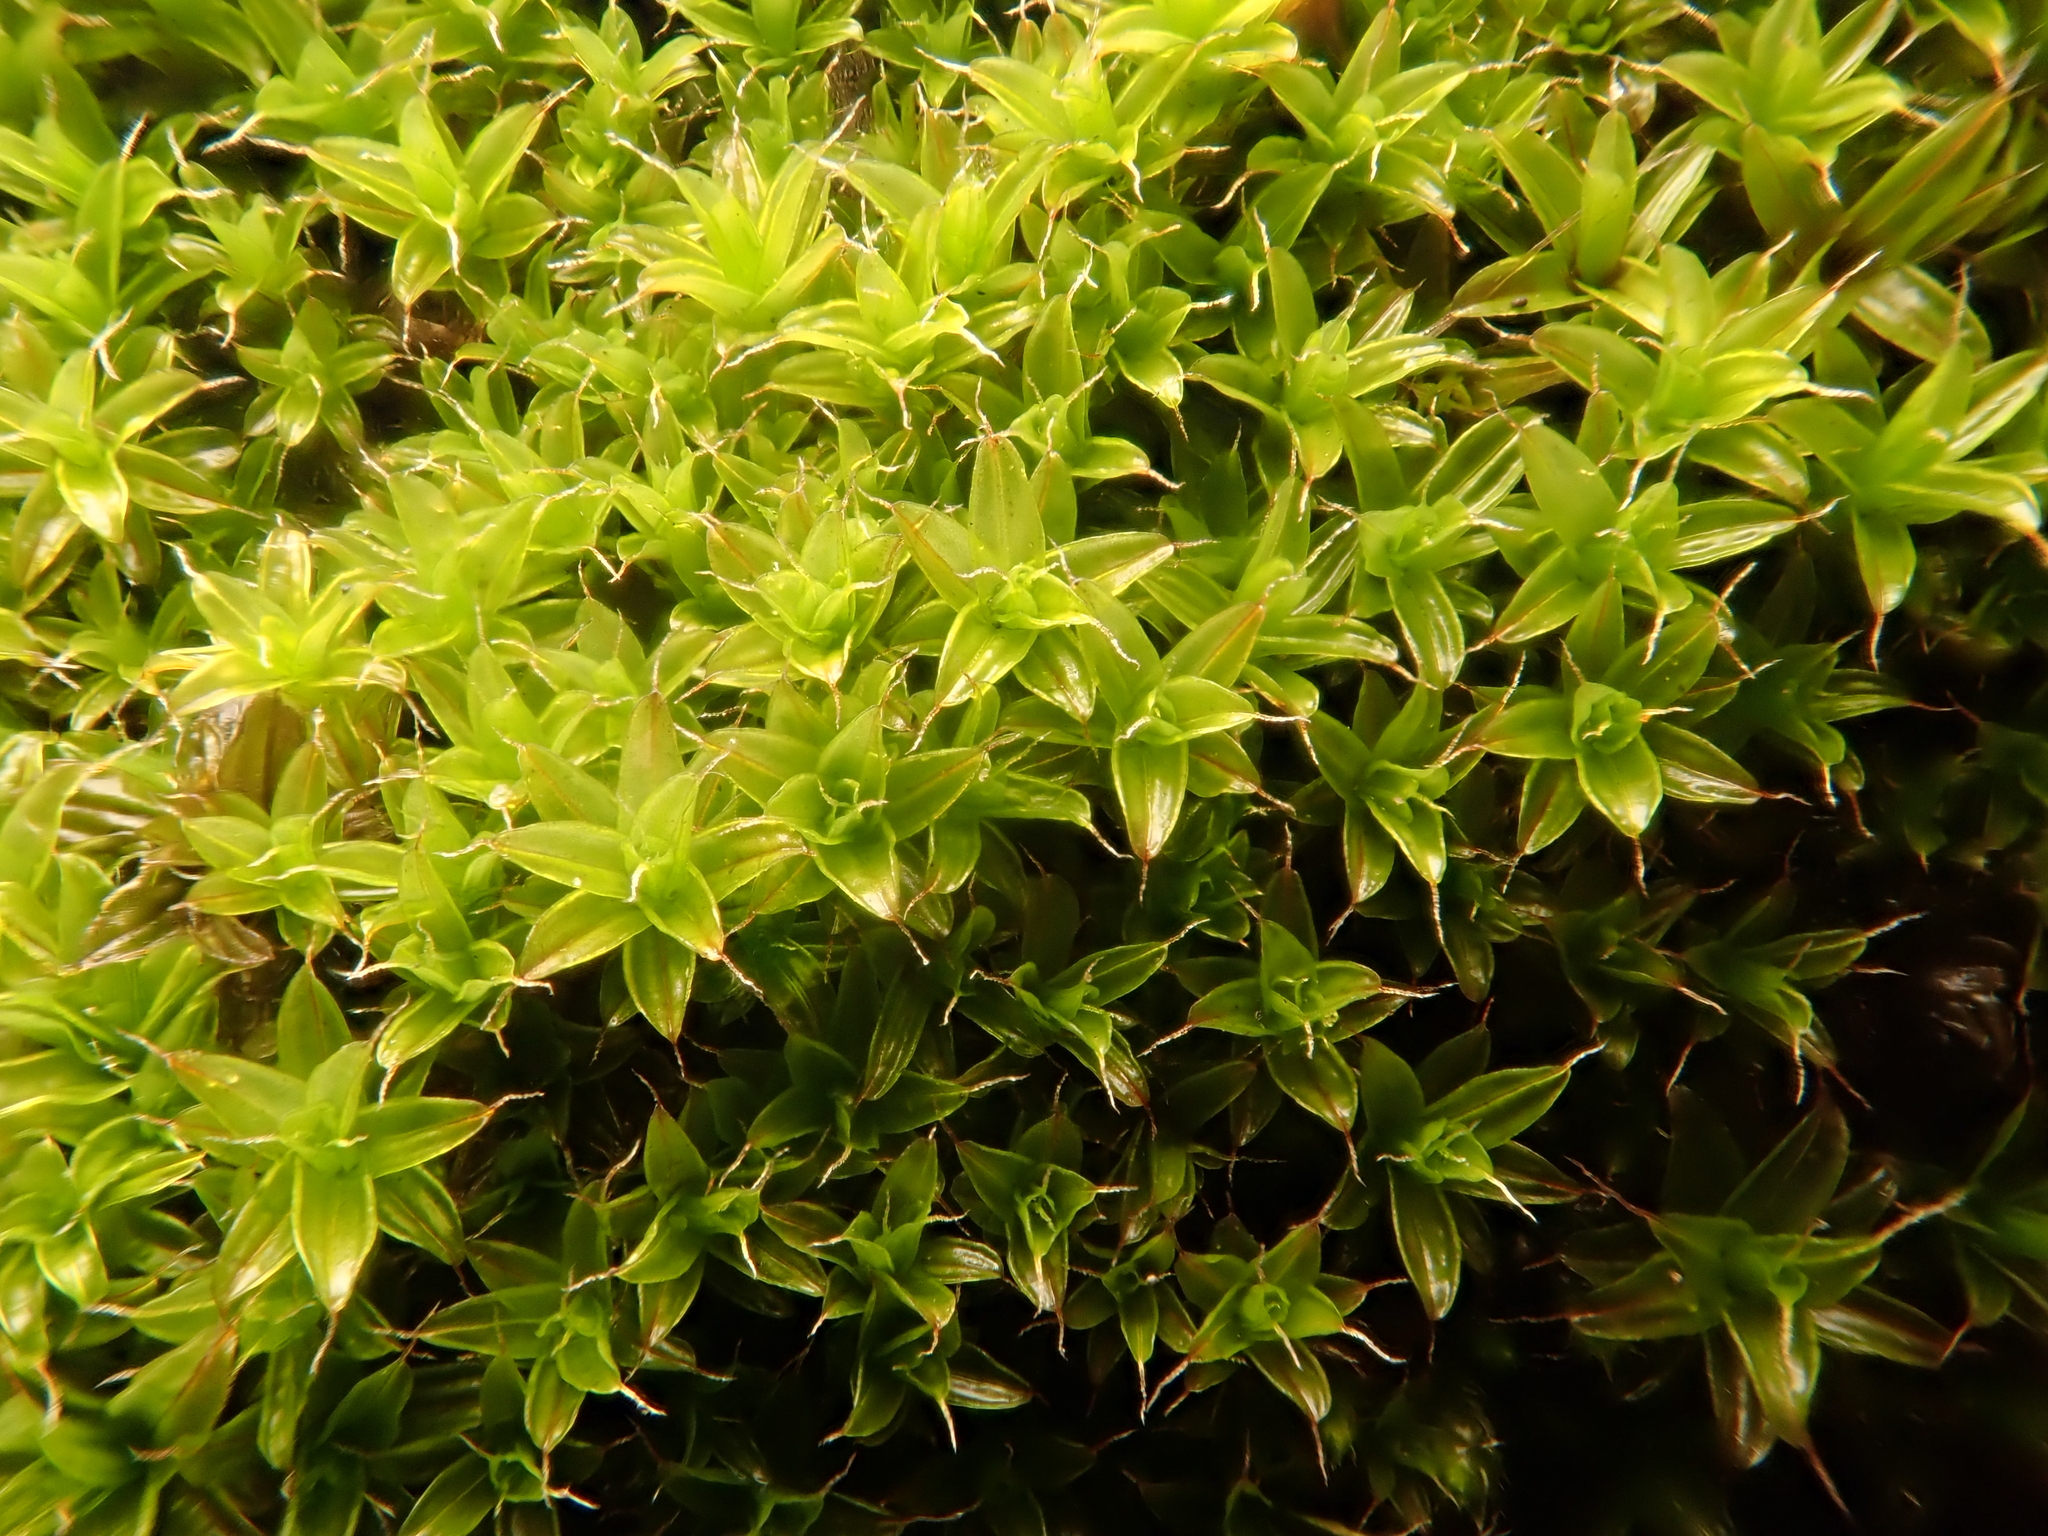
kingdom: Plantae
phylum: Bryophyta
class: Bryopsida
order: Pottiales
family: Pottiaceae
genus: Syntrichia
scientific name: Syntrichia ruralis
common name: Sidewalk screw moss
